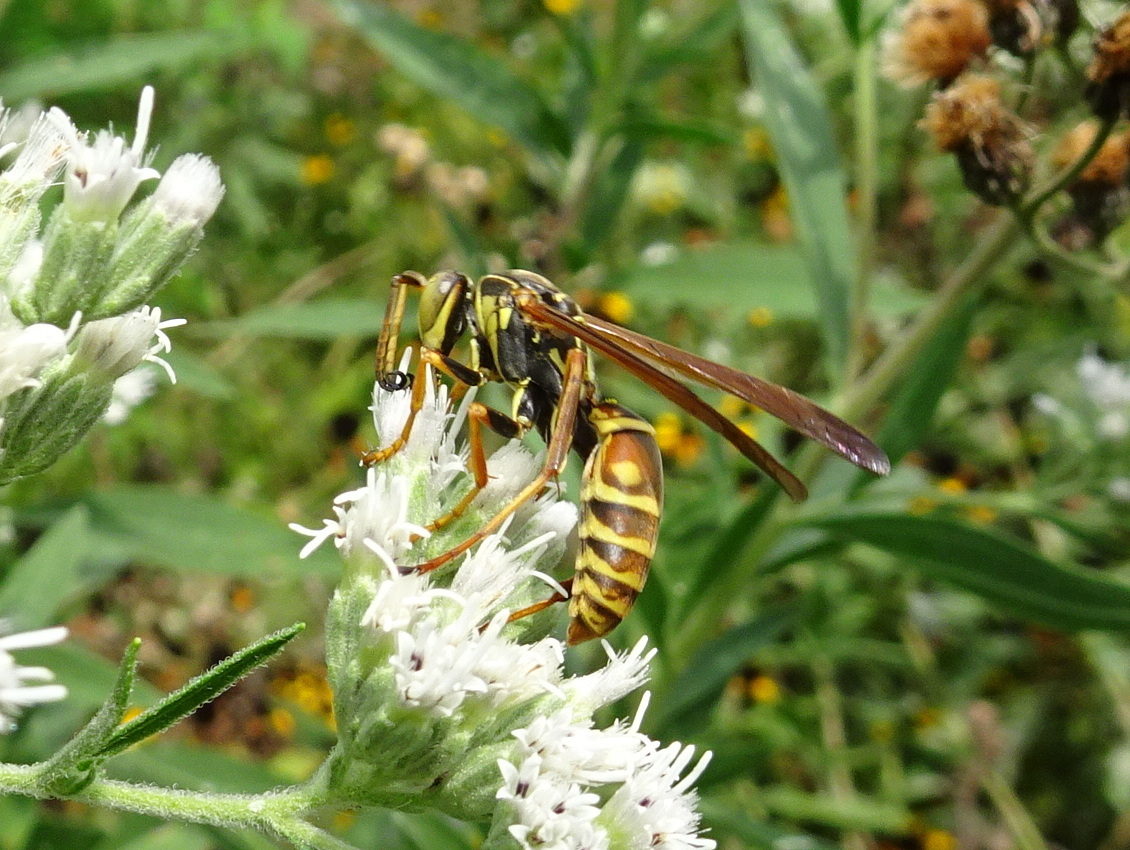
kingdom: Animalia
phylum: Arthropoda
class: Insecta
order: Hymenoptera
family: Eumenidae
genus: Polistes
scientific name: Polistes fuscatus
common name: Dark paper wasp
